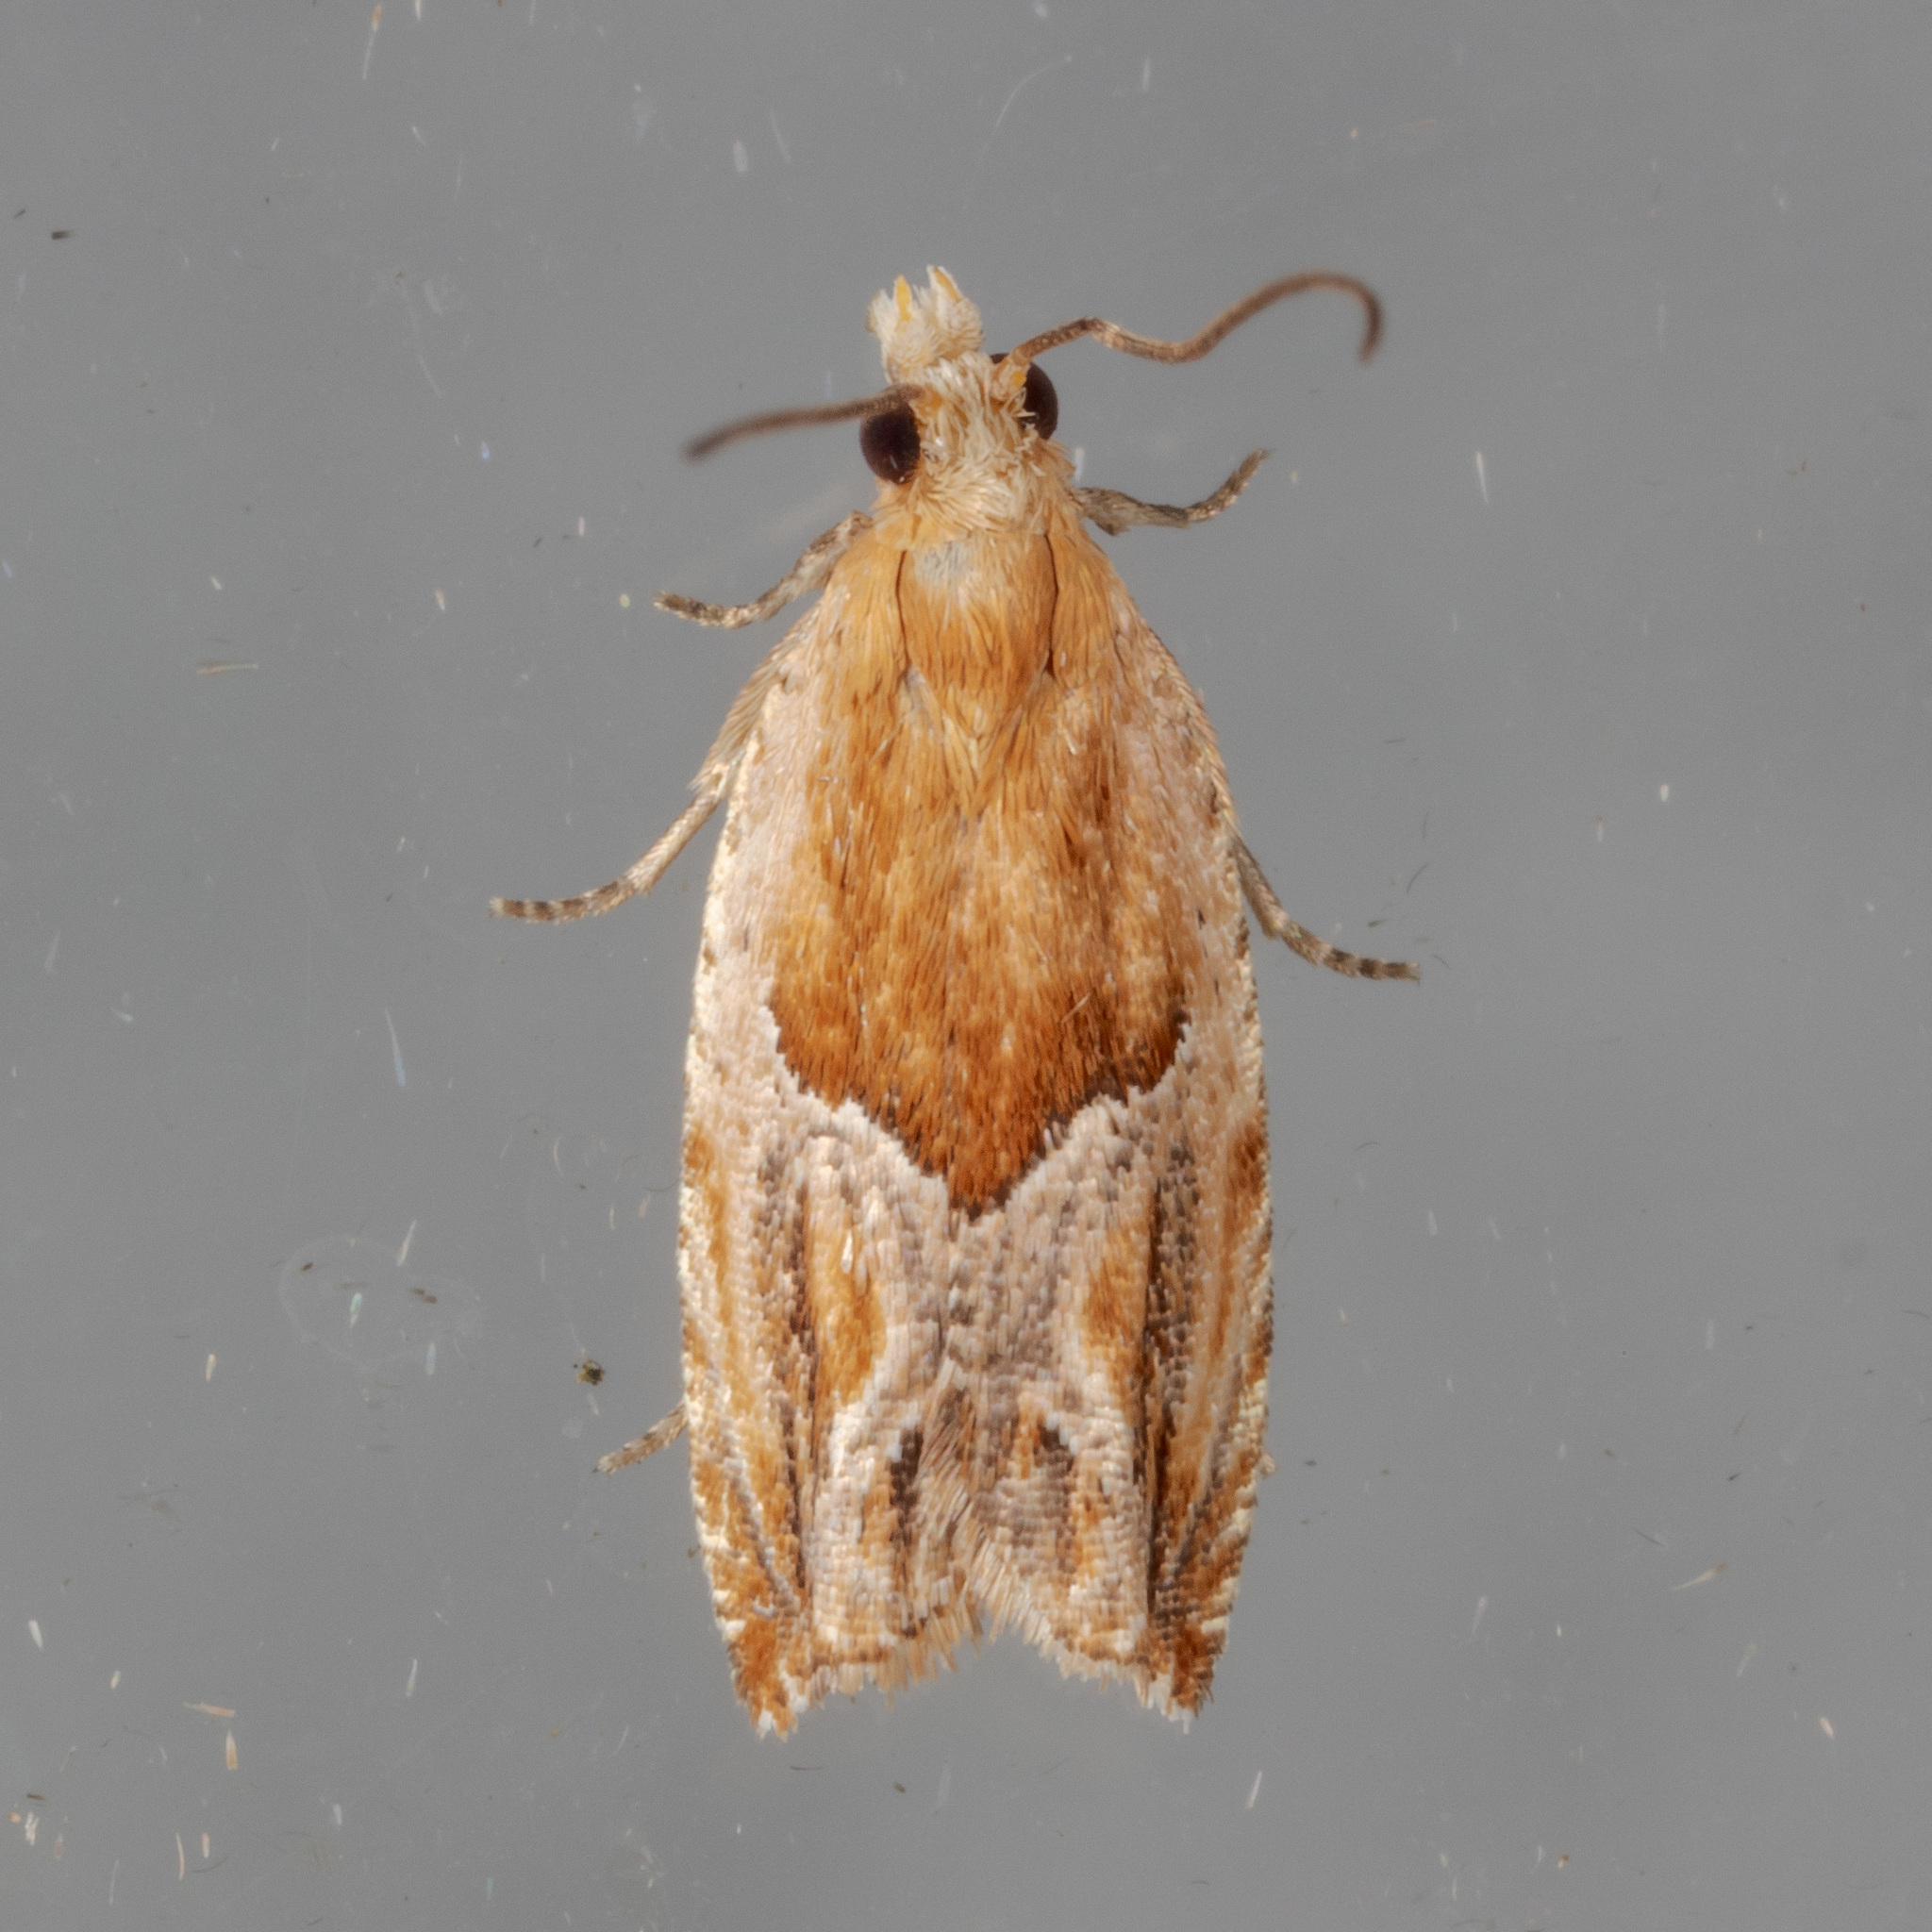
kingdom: Animalia
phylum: Arthropoda
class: Insecta
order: Lepidoptera
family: Tortricidae
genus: Ancylis
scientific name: Ancylis comptana
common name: Little roller
